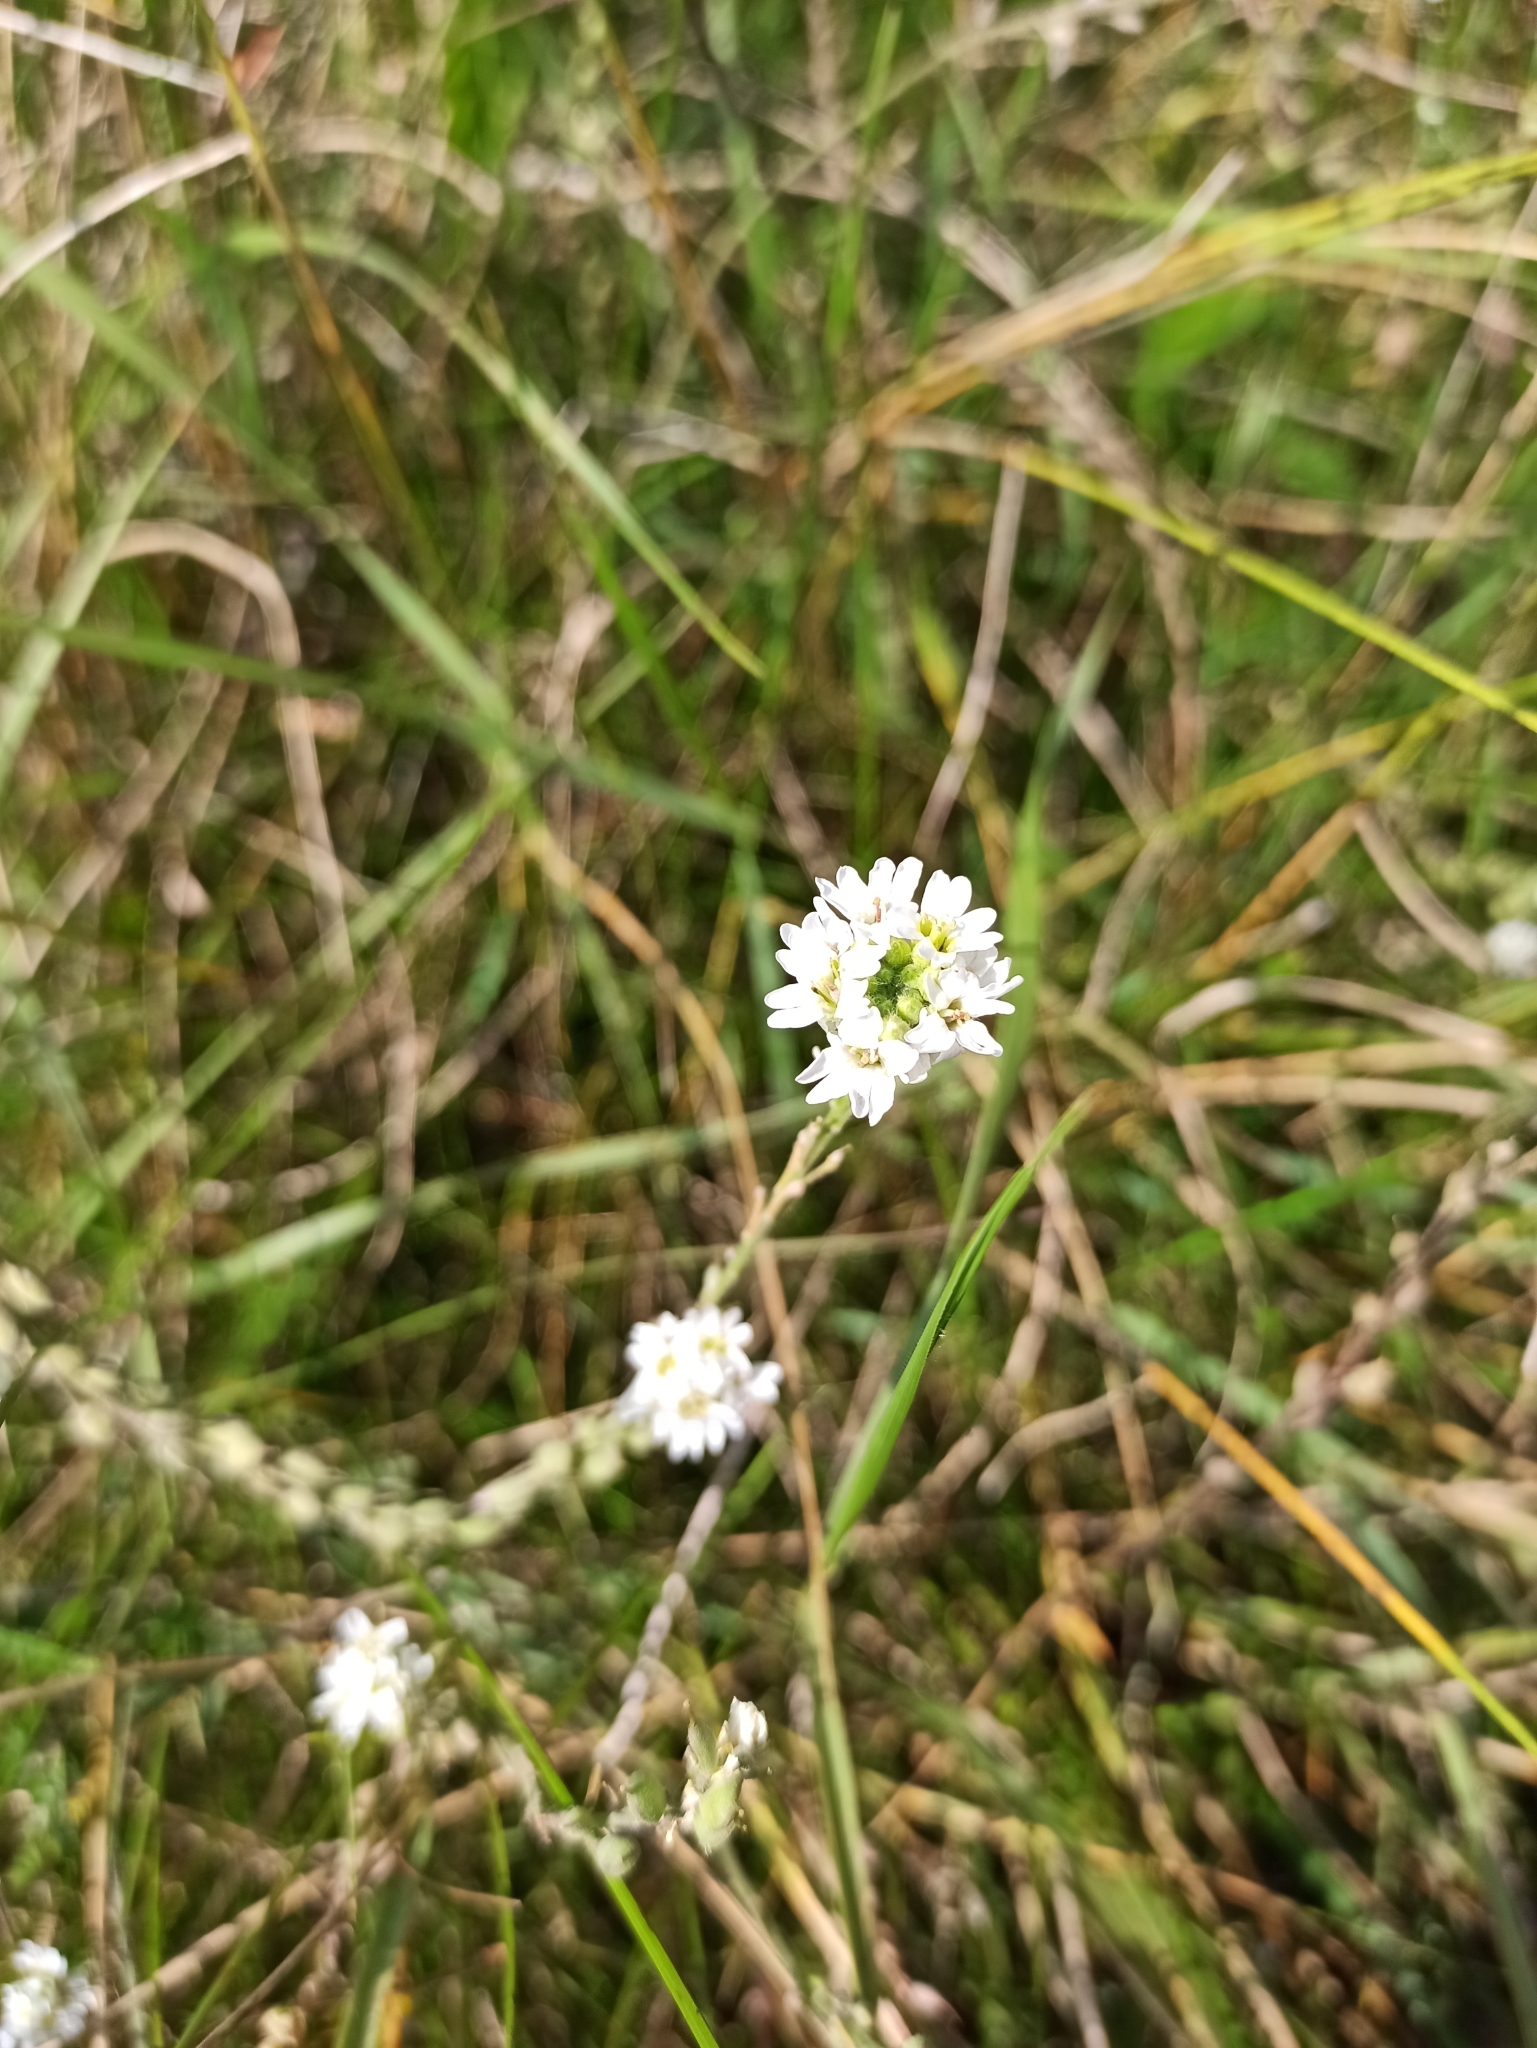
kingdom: Plantae
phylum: Tracheophyta
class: Magnoliopsida
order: Brassicales
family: Brassicaceae
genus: Berteroa
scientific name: Berteroa incana
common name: Hoary alison
